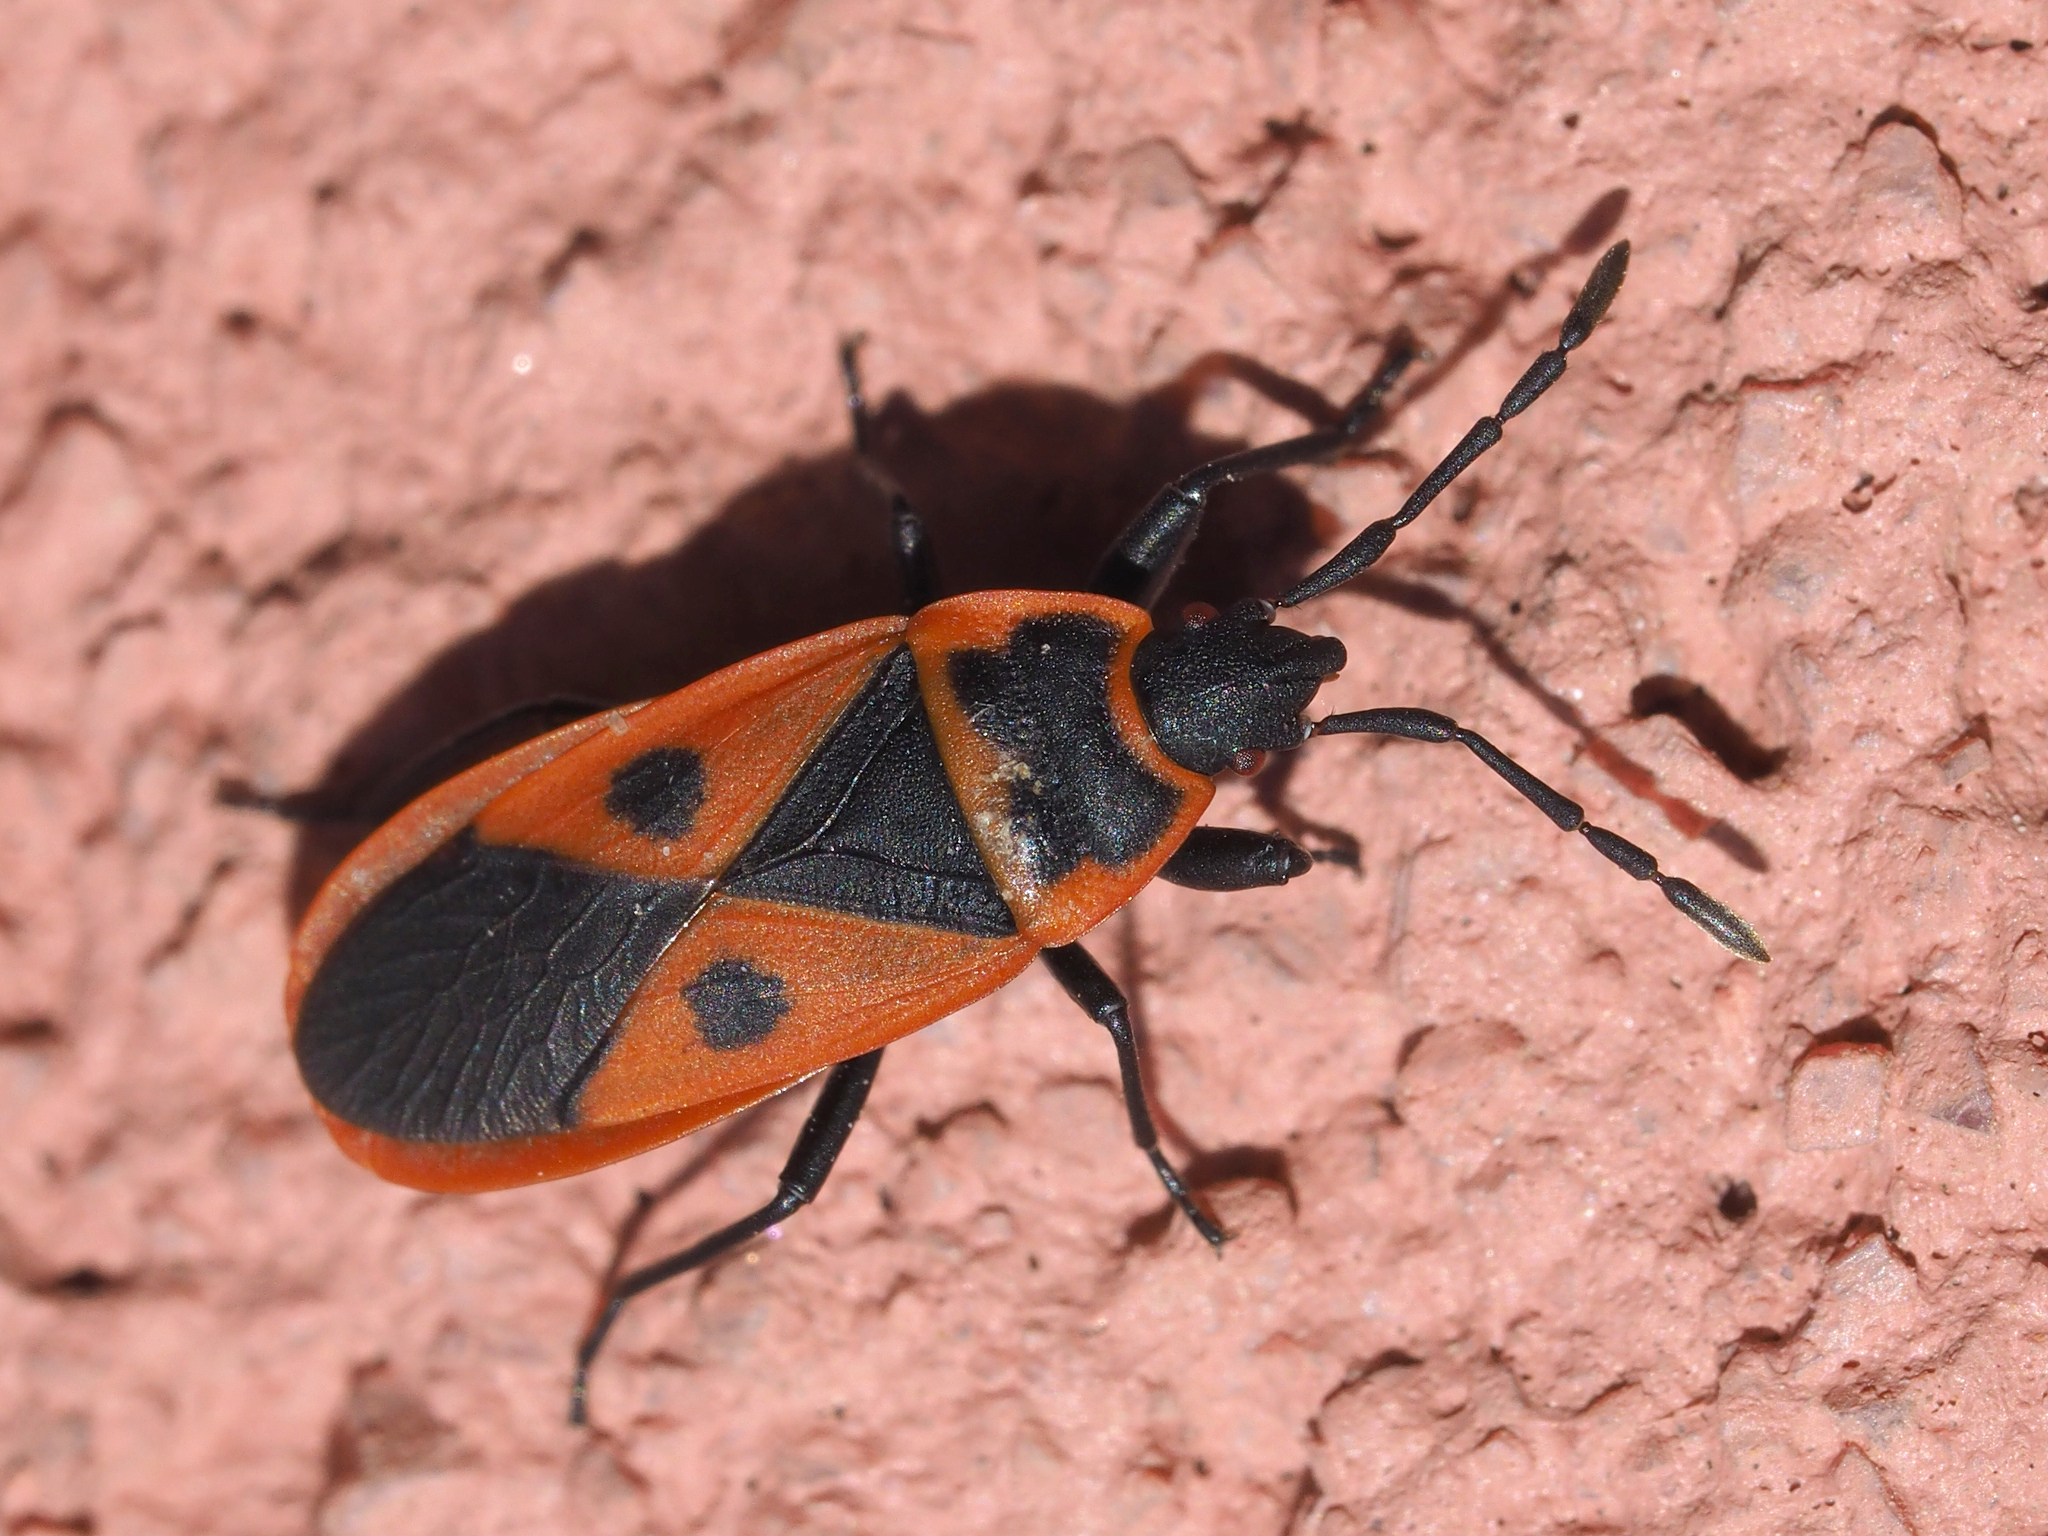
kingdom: Animalia
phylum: Arthropoda
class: Insecta
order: Hemiptera
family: Pyrrhocoridae
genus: Scantius
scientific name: Scantius aegyptius
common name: Red bug
